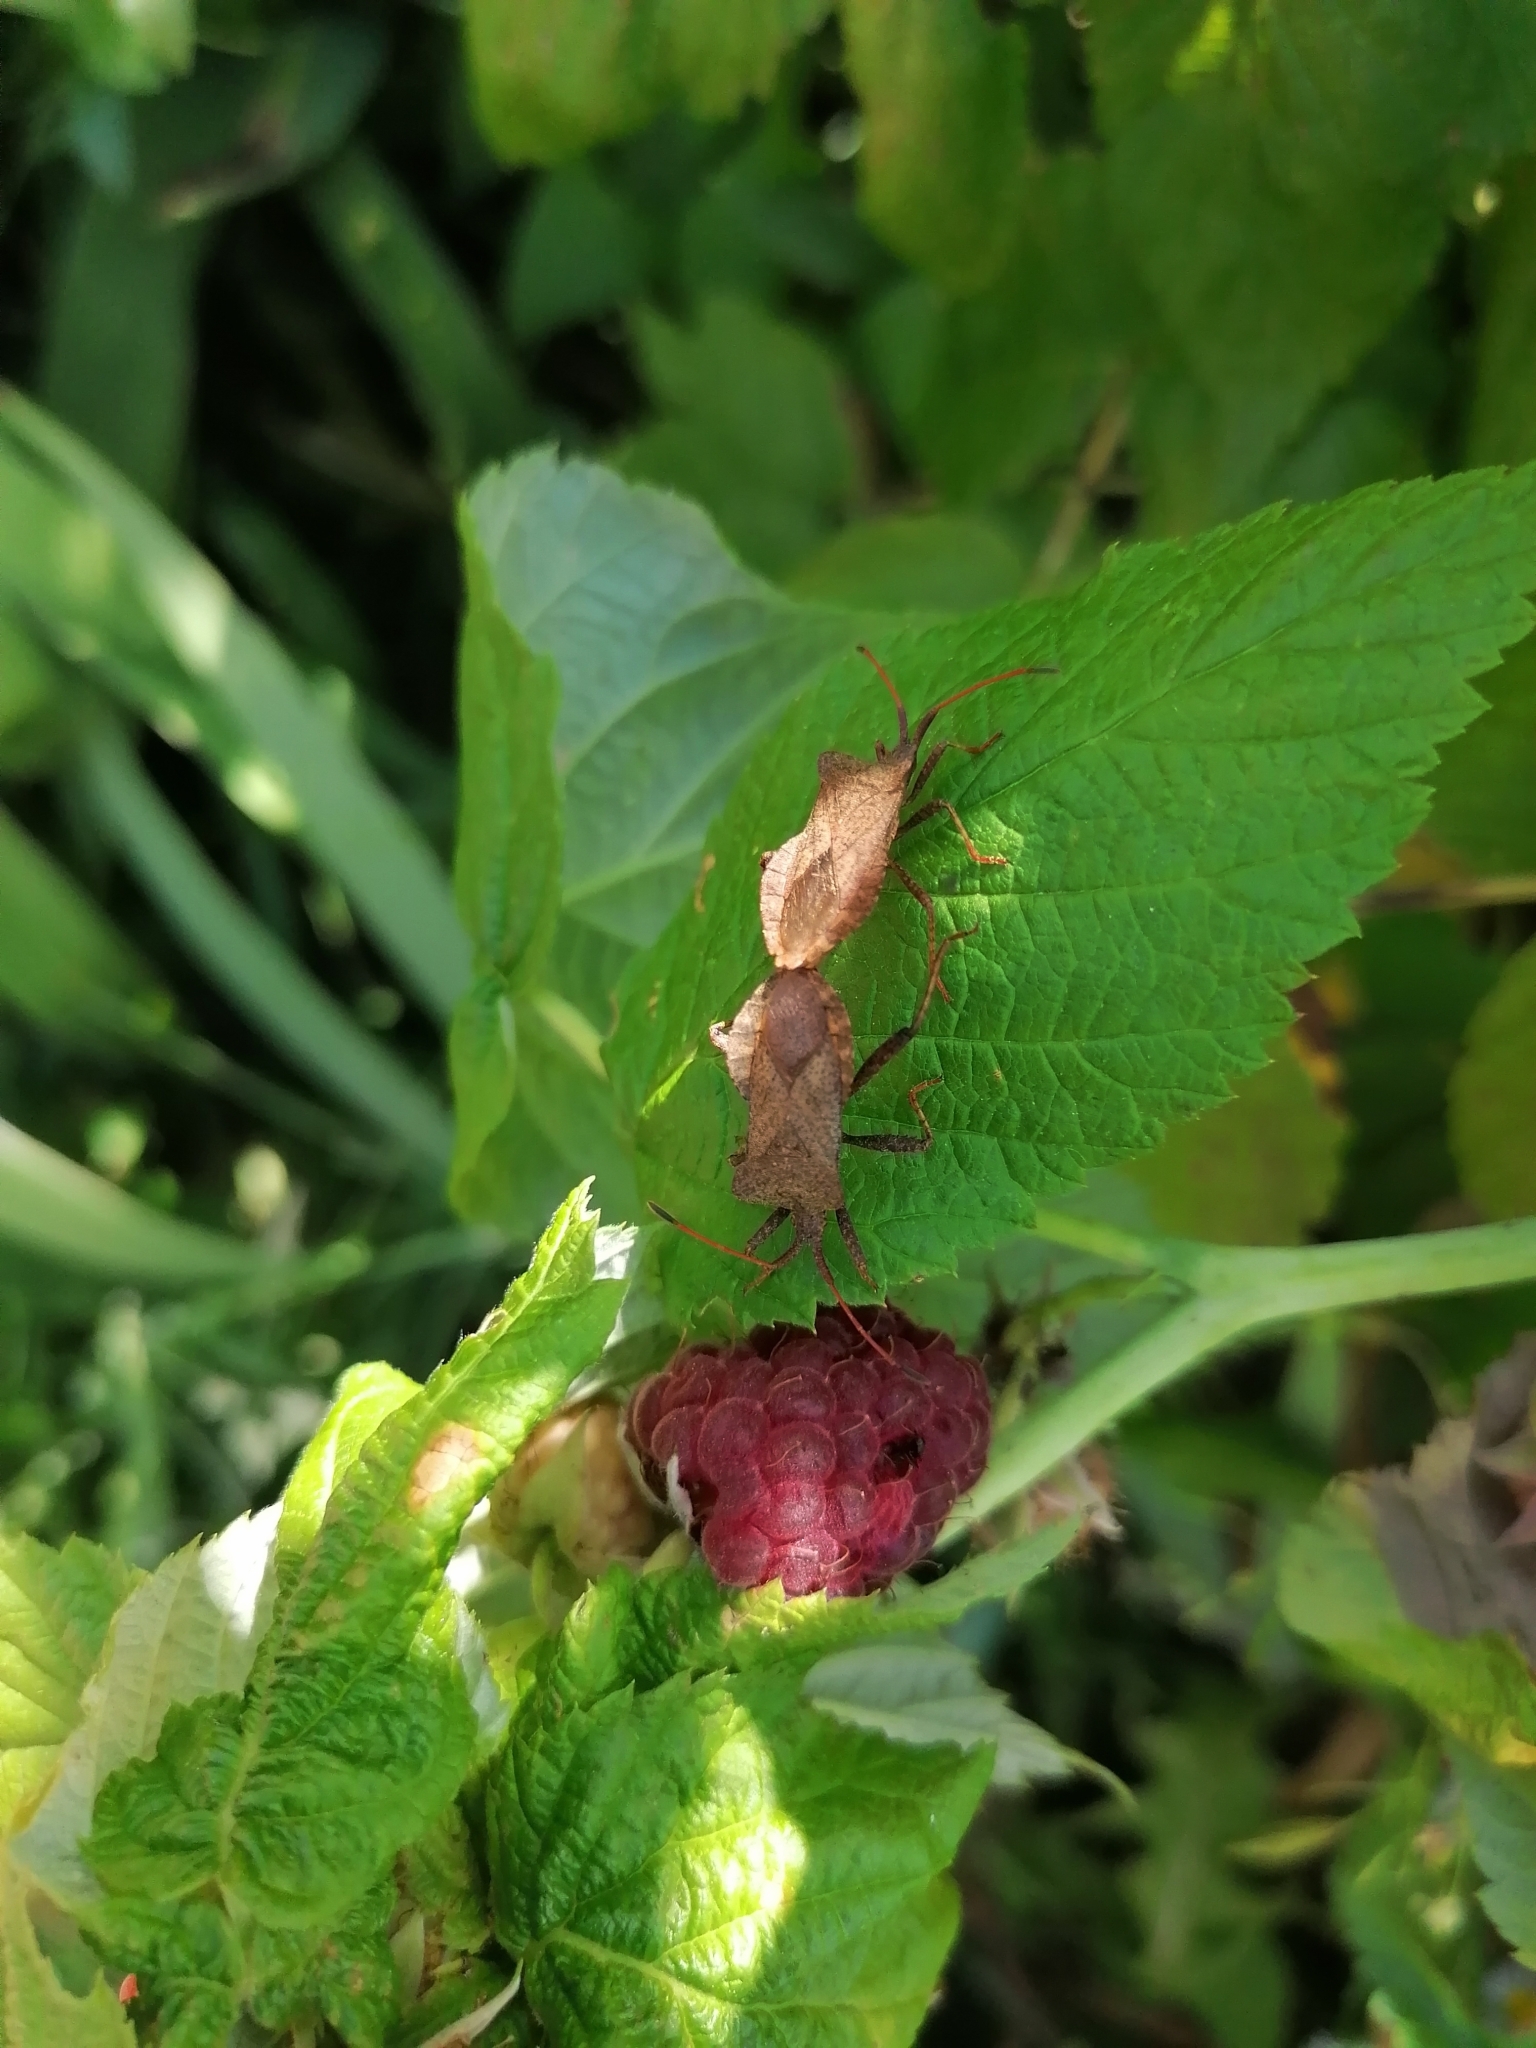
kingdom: Animalia
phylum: Arthropoda
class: Insecta
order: Hemiptera
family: Coreidae
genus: Coreus
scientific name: Coreus marginatus
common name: Dock bug
